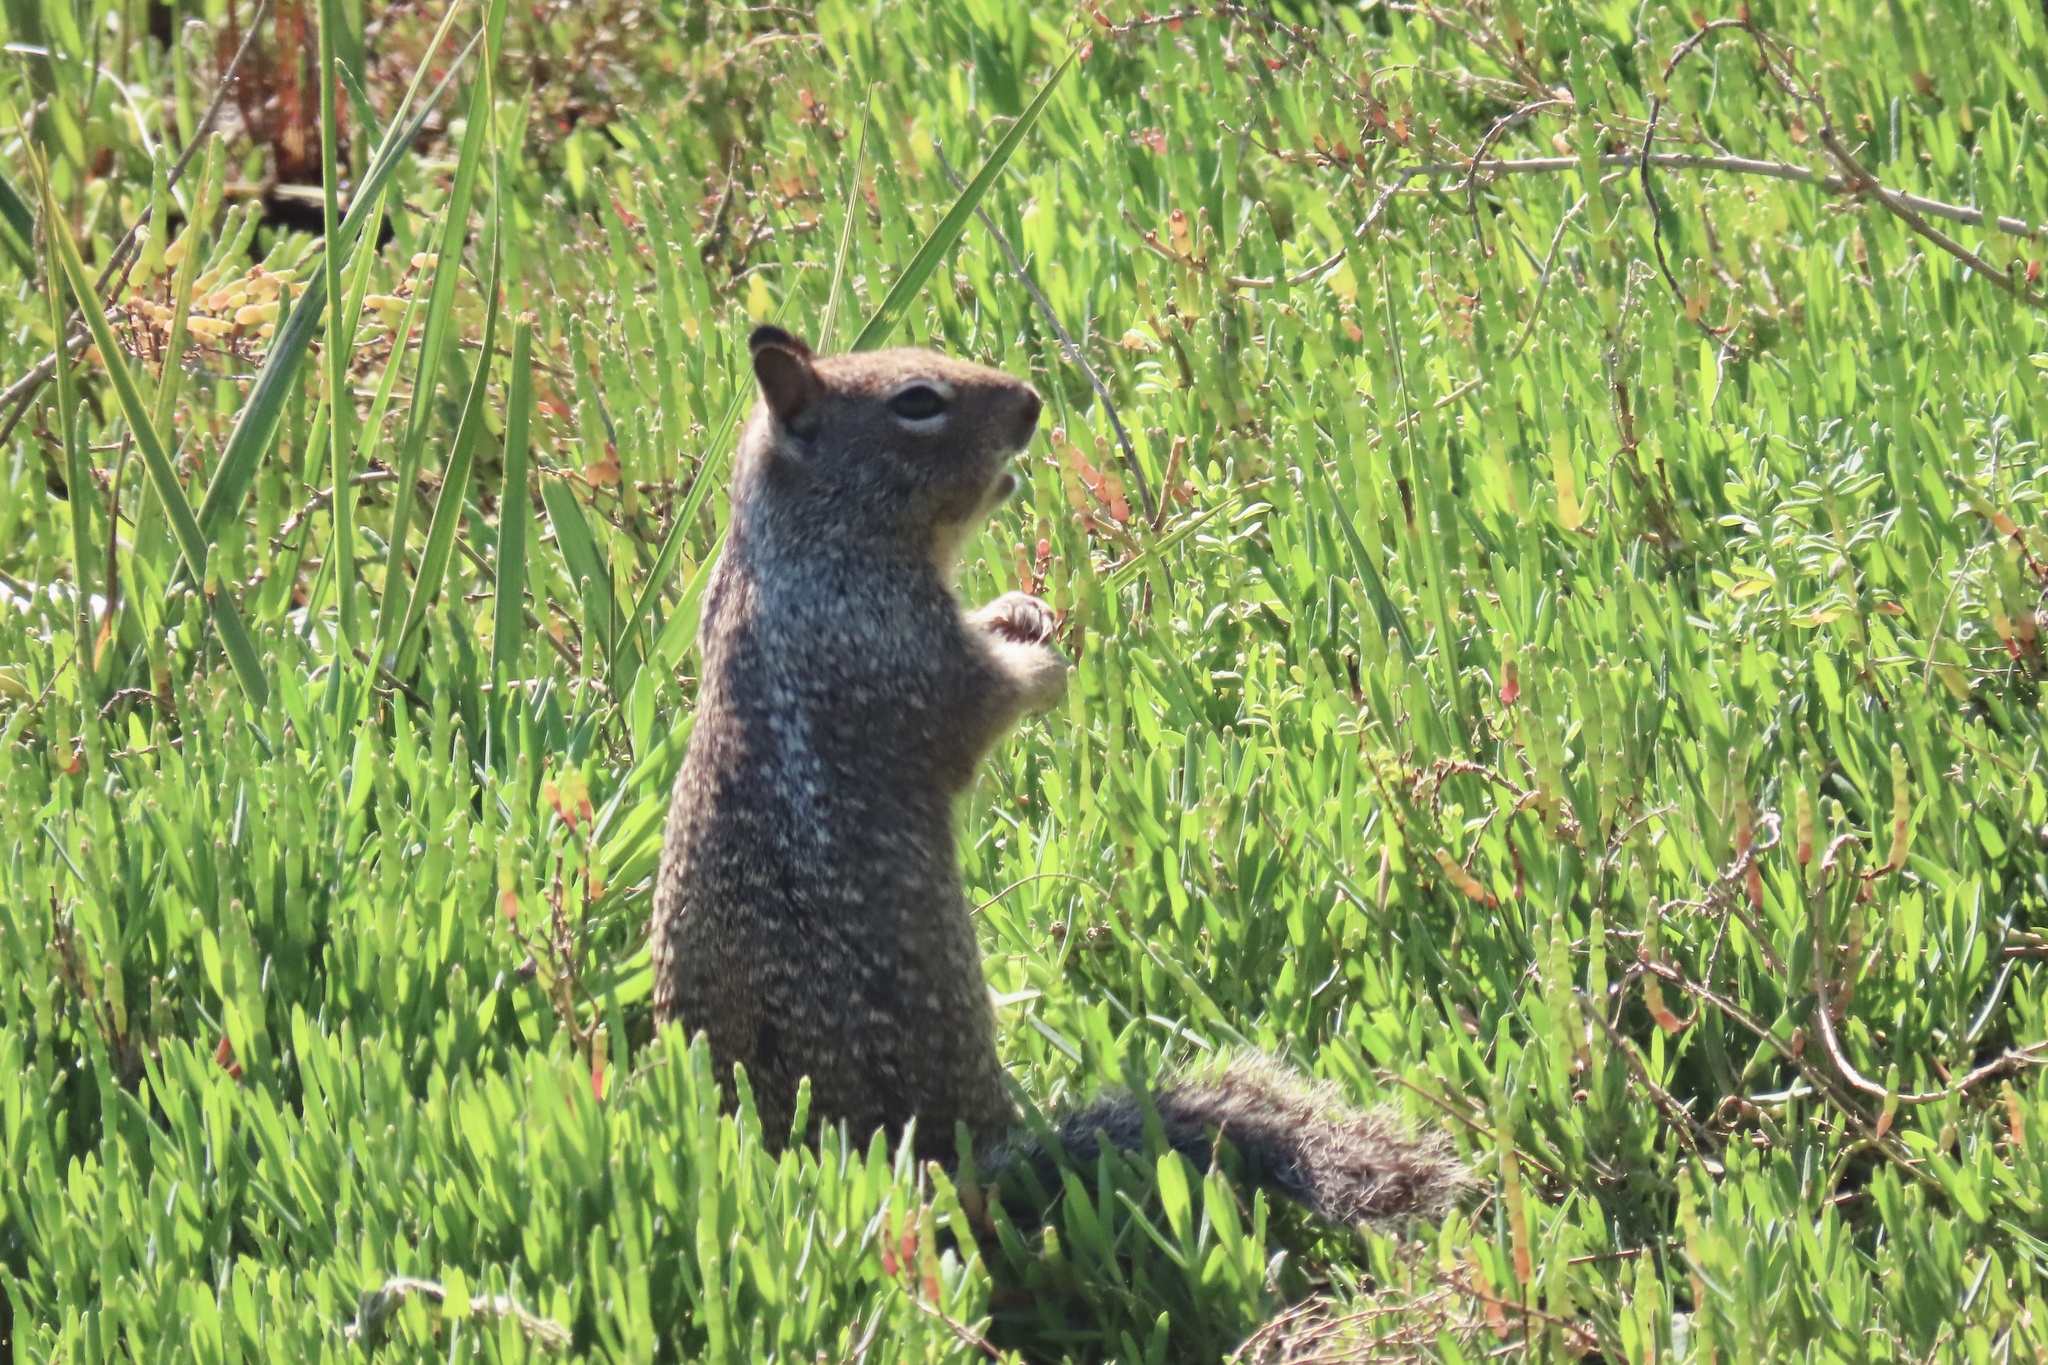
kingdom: Animalia
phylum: Chordata
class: Mammalia
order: Rodentia
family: Sciuridae
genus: Otospermophilus
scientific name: Otospermophilus beecheyi
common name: California ground squirrel
